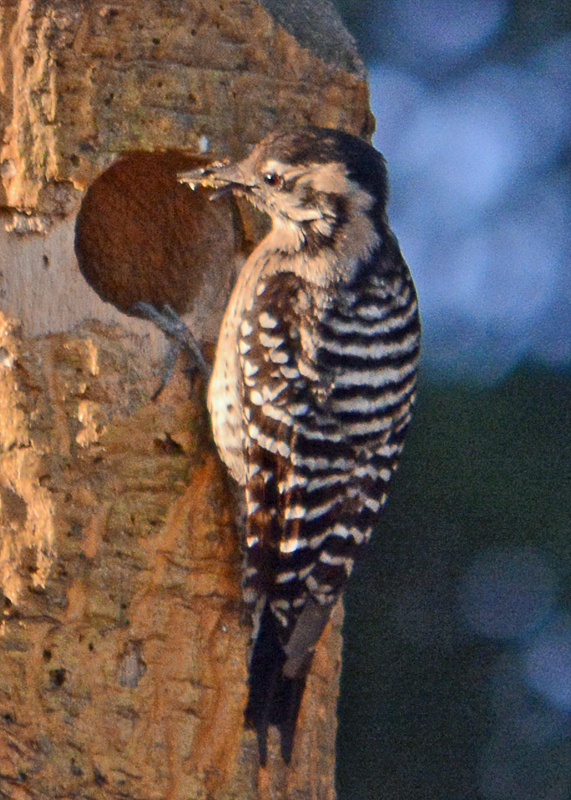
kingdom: Animalia
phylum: Chordata
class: Aves
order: Piciformes
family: Picidae
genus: Dryobates
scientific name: Dryobates scalaris
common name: Ladder-backed woodpecker
